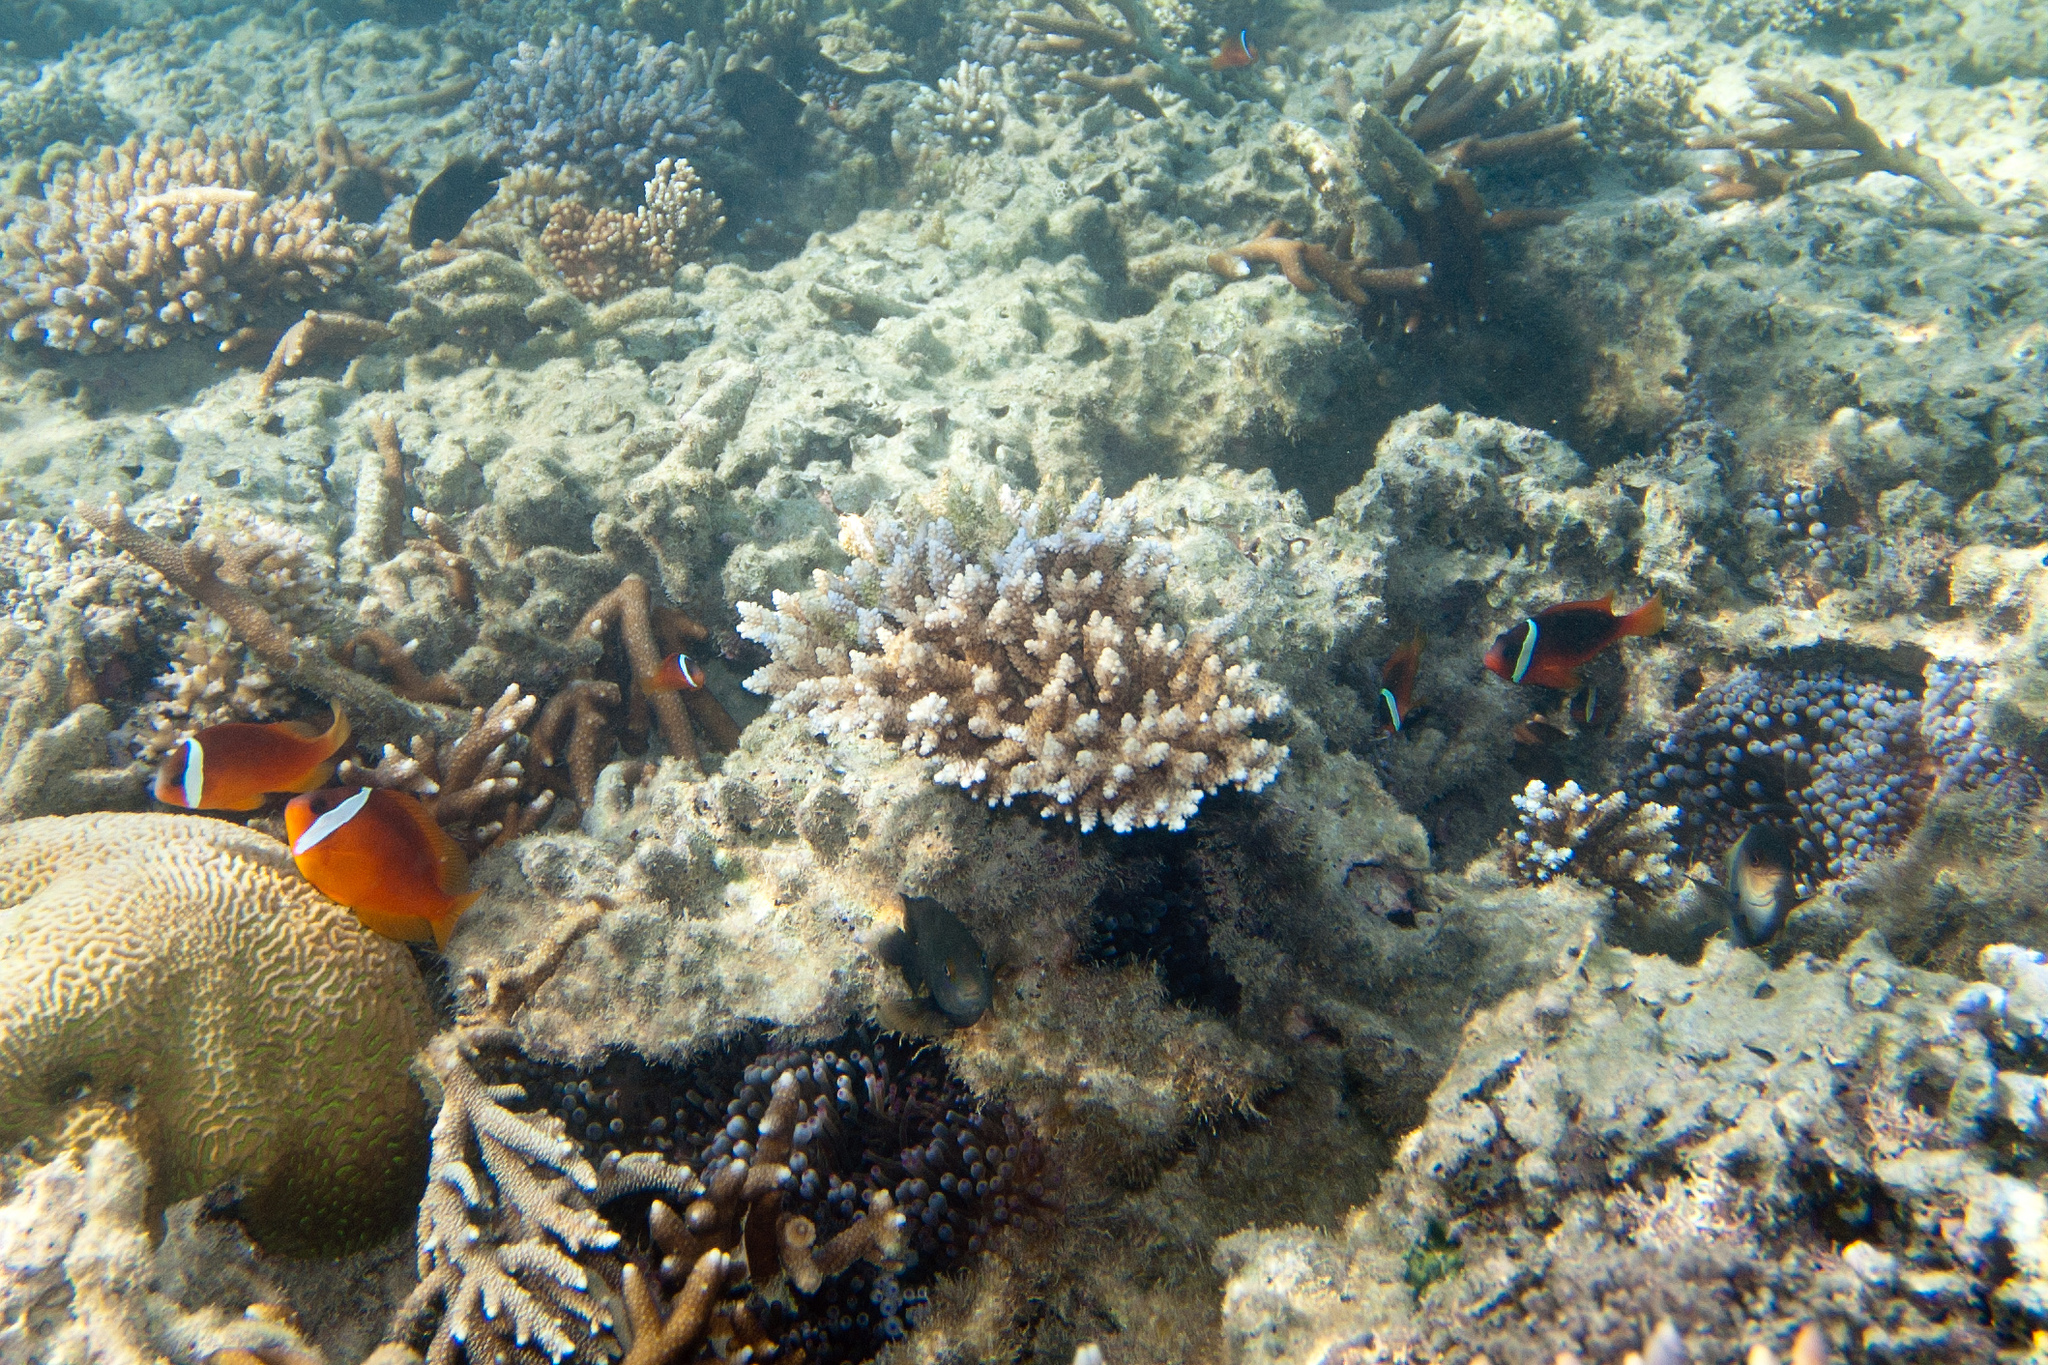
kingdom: Animalia
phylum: Cnidaria
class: Anthozoa
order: Actiniaria
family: Actiniidae
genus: Entacmaea
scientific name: Entacmaea quadricolor
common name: Bulb tentacle sea anemone
